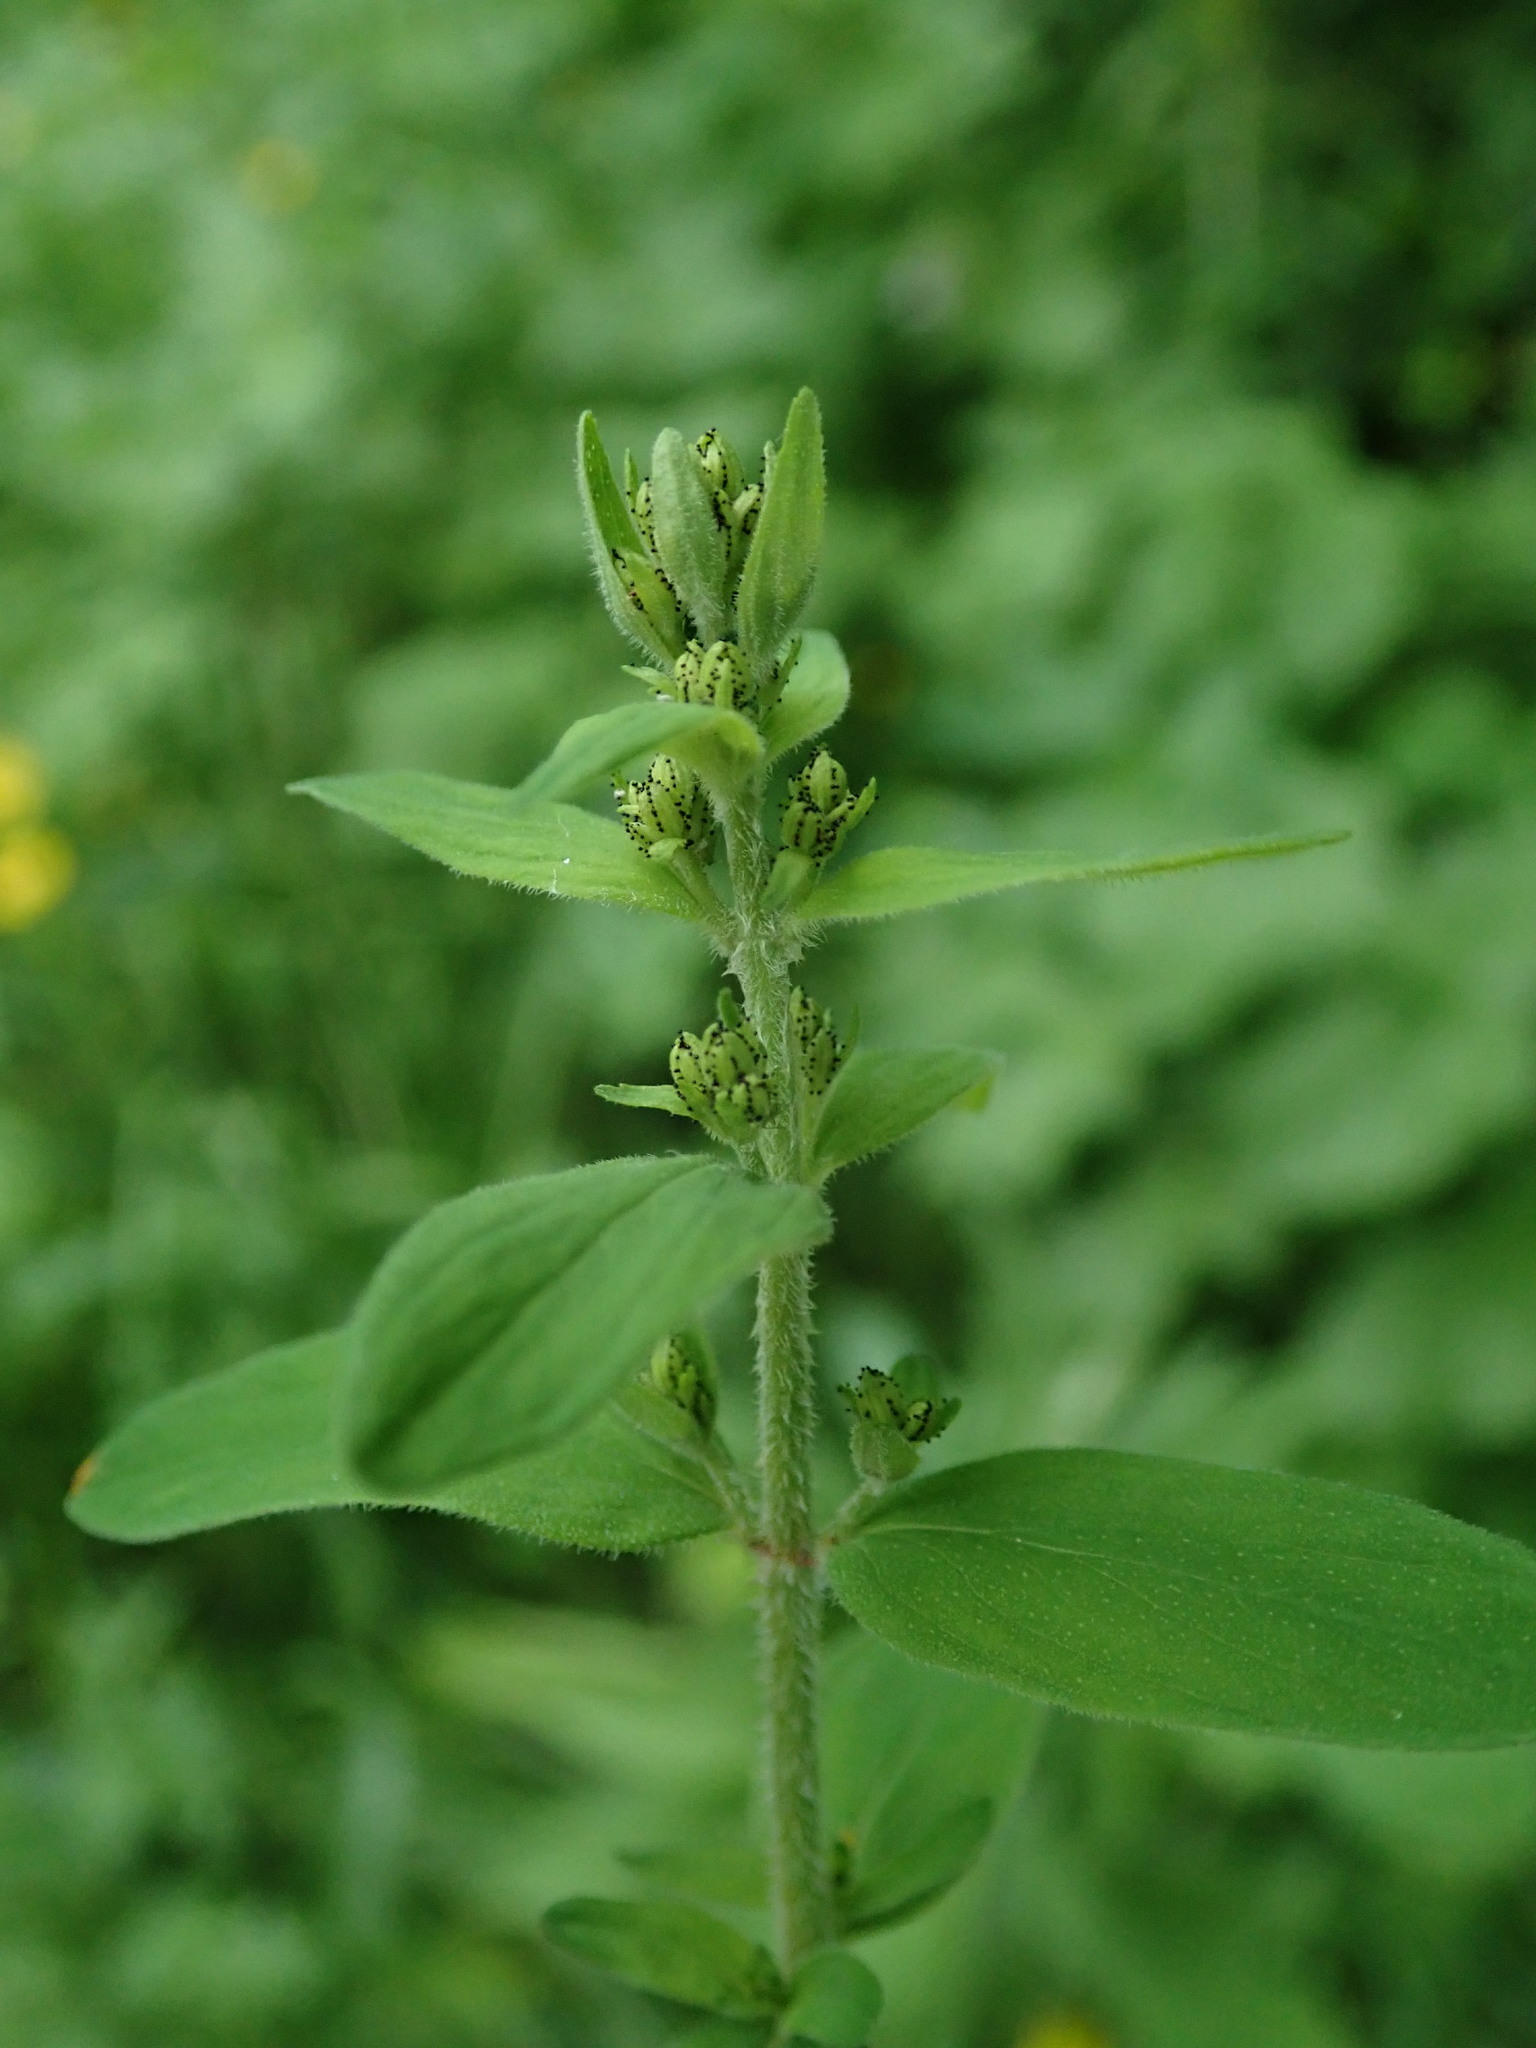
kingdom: Plantae
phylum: Tracheophyta
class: Magnoliopsida
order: Malpighiales
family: Hypericaceae
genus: Hypericum
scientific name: Hypericum hirsutum
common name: Hairy st. john's-wort
